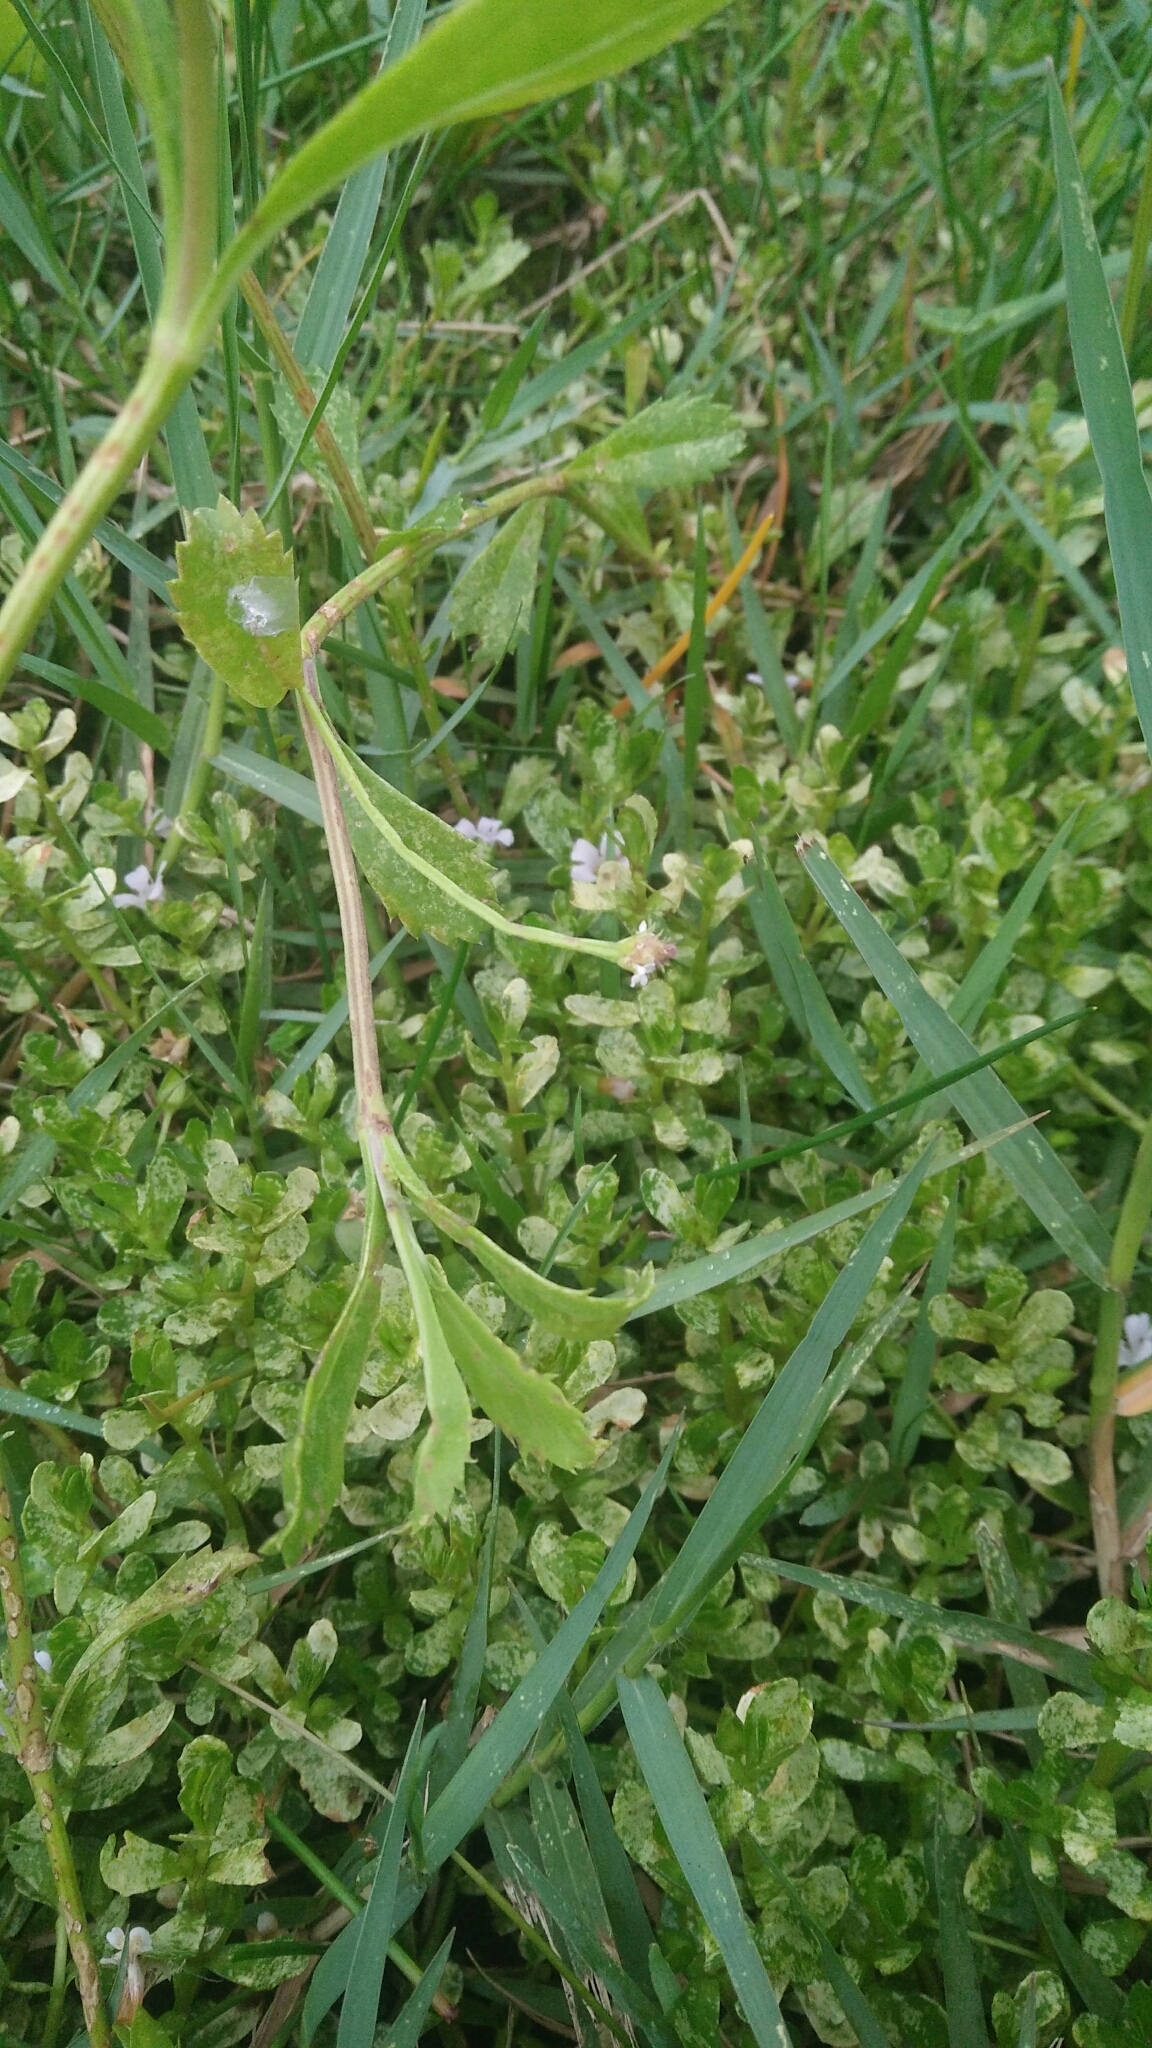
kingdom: Plantae
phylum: Tracheophyta
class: Magnoliopsida
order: Lamiales
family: Verbenaceae
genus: Phyla
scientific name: Phyla nodiflora
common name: Frogfruit
